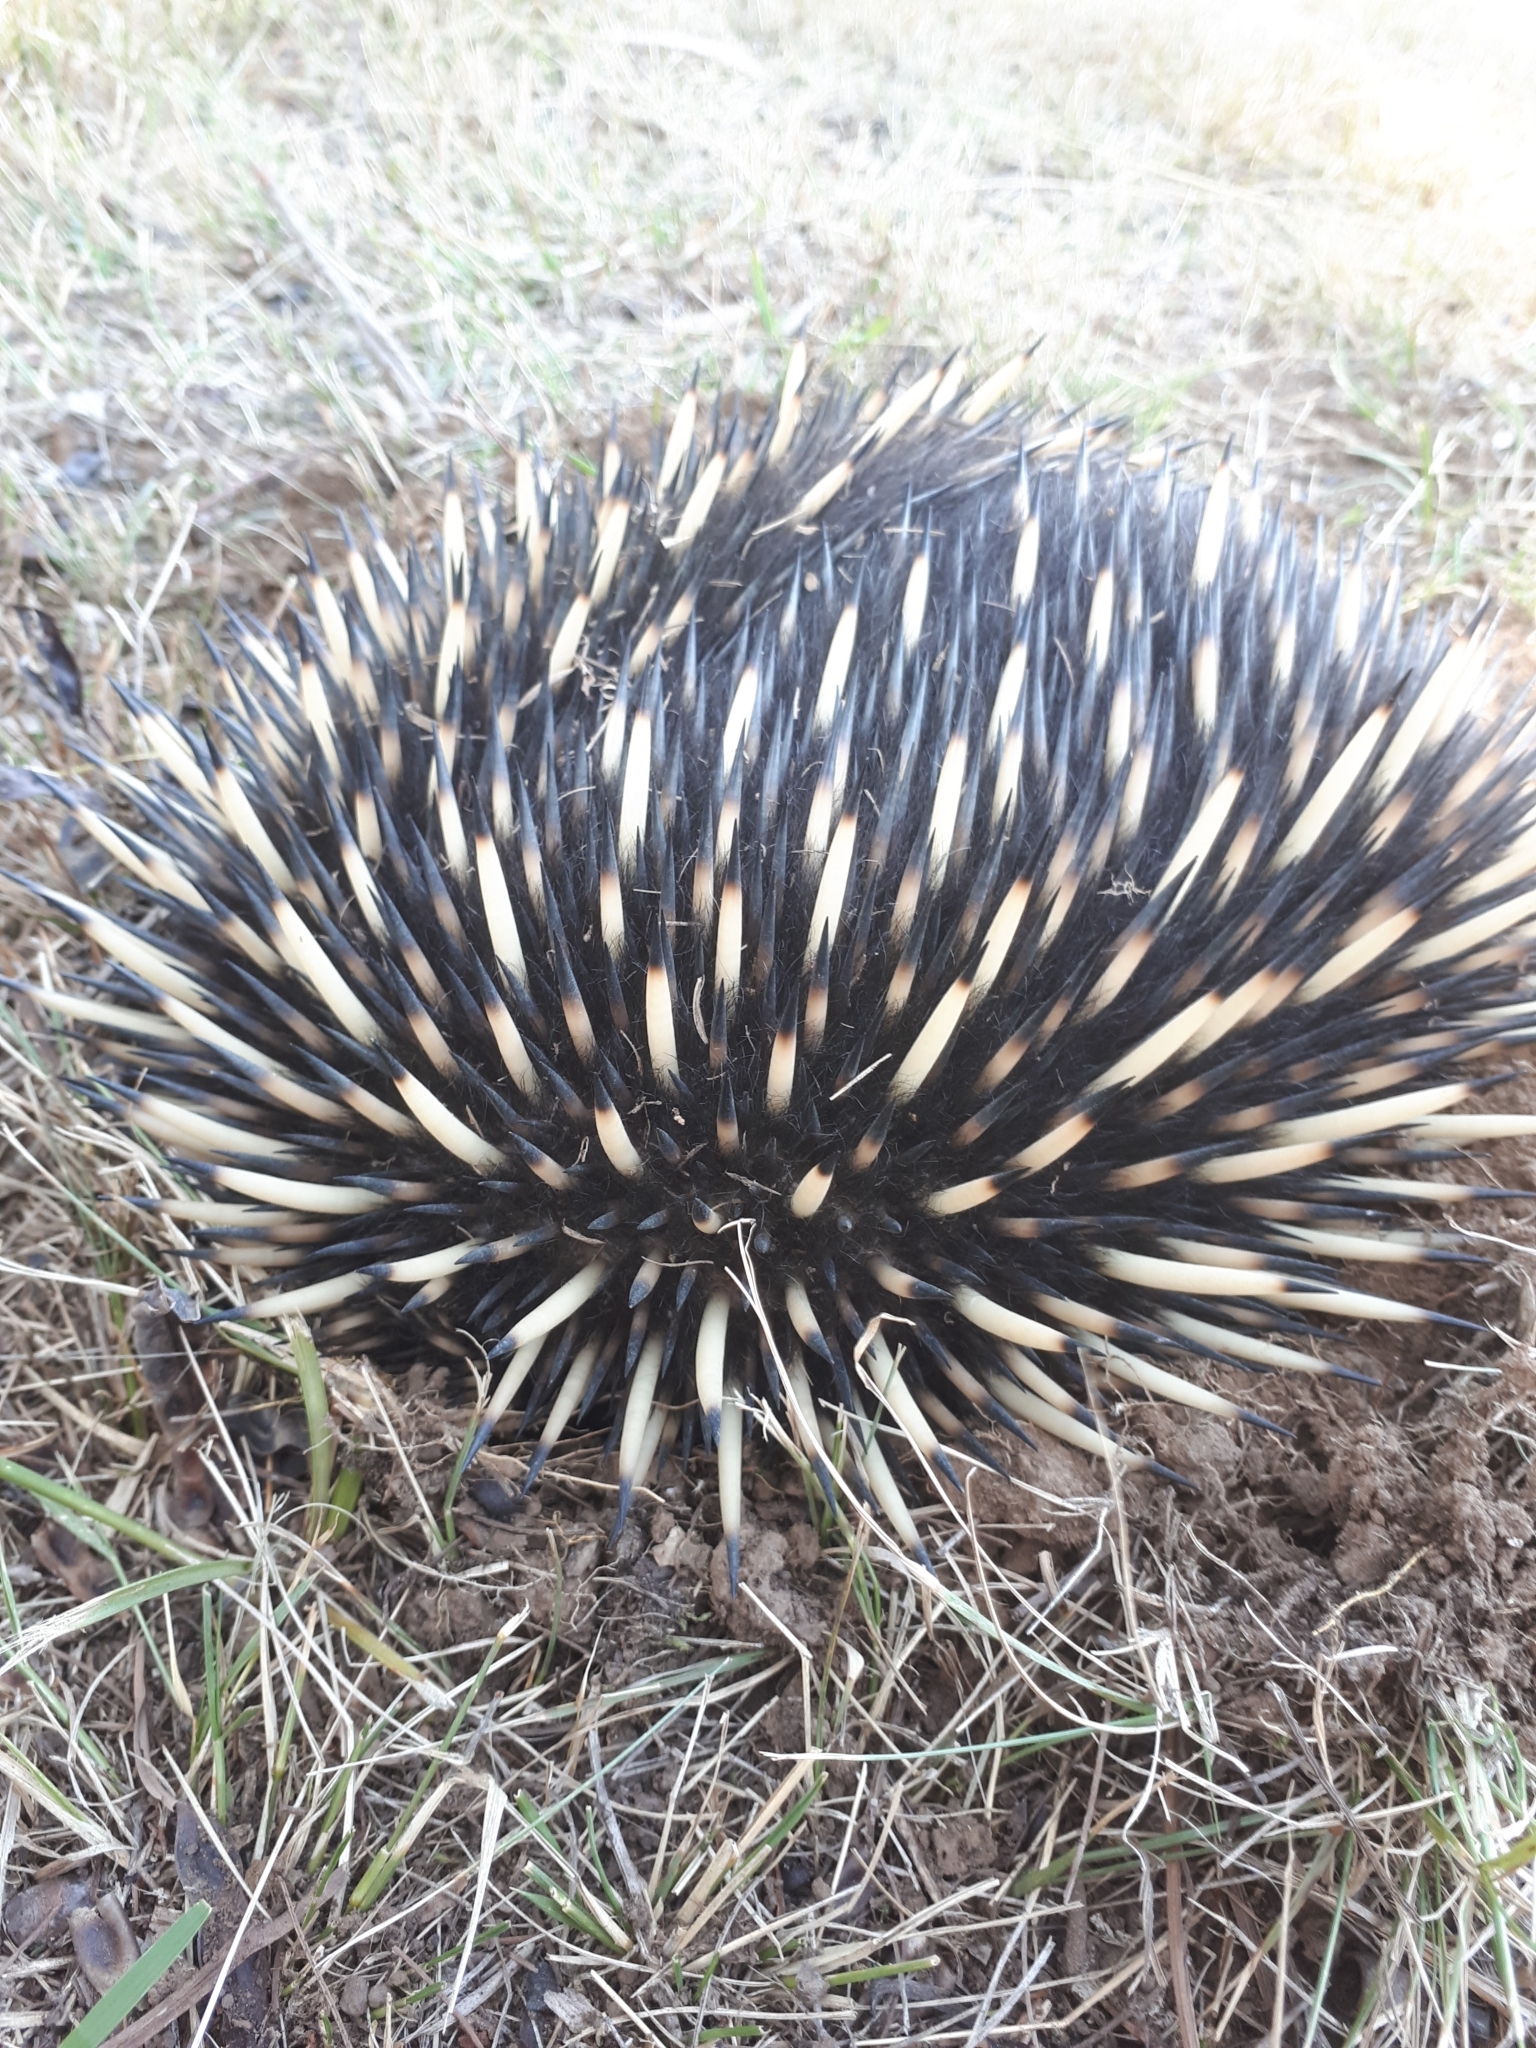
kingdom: Animalia
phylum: Chordata
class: Mammalia
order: Monotremata
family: Tachyglossidae
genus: Tachyglossus
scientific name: Tachyglossus aculeatus
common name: Short-beaked echidna
